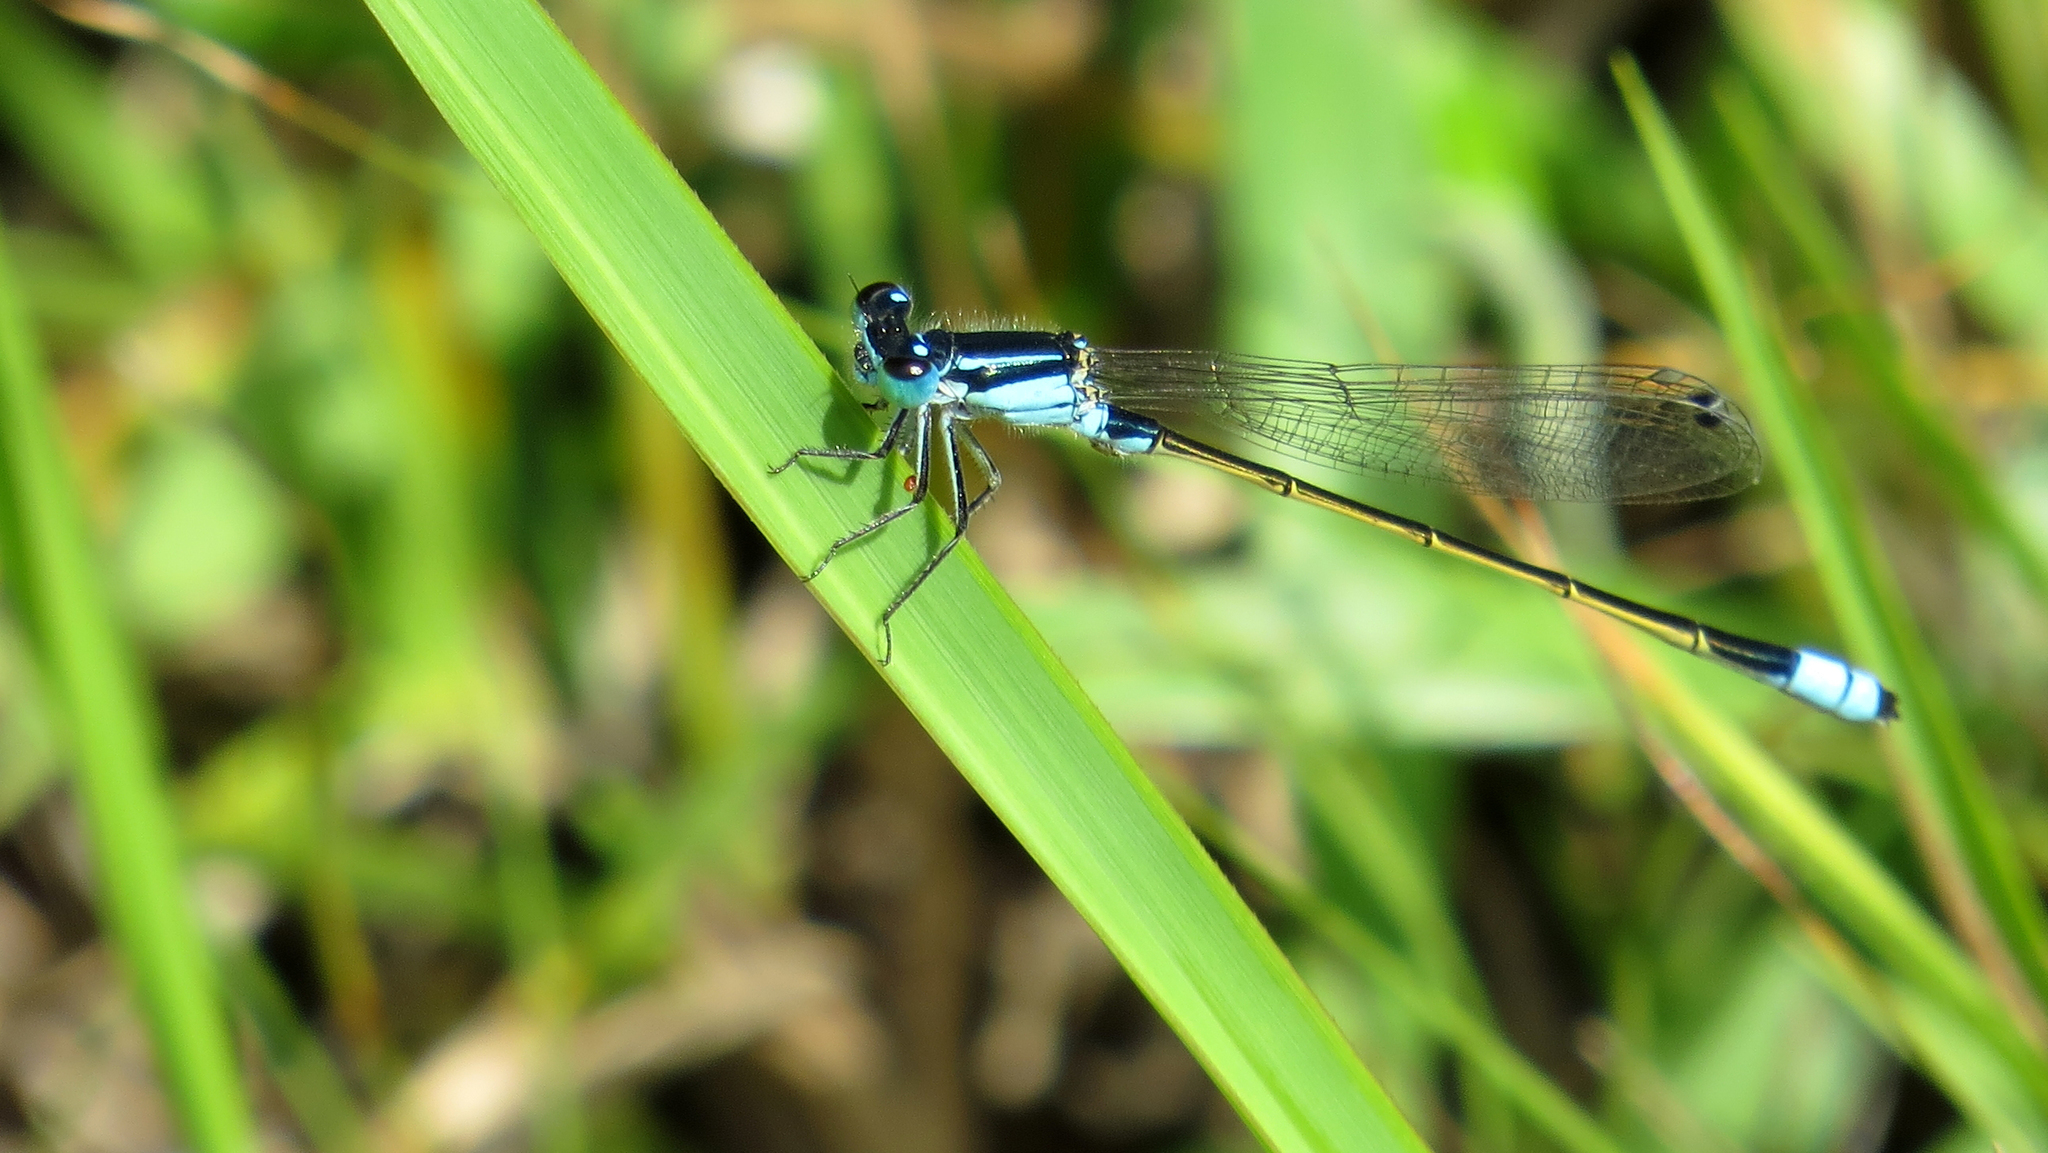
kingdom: Animalia
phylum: Arthropoda
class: Insecta
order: Odonata
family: Coenagrionidae
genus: Ischnura
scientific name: Ischnura heterosticta
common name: Common bluetail
